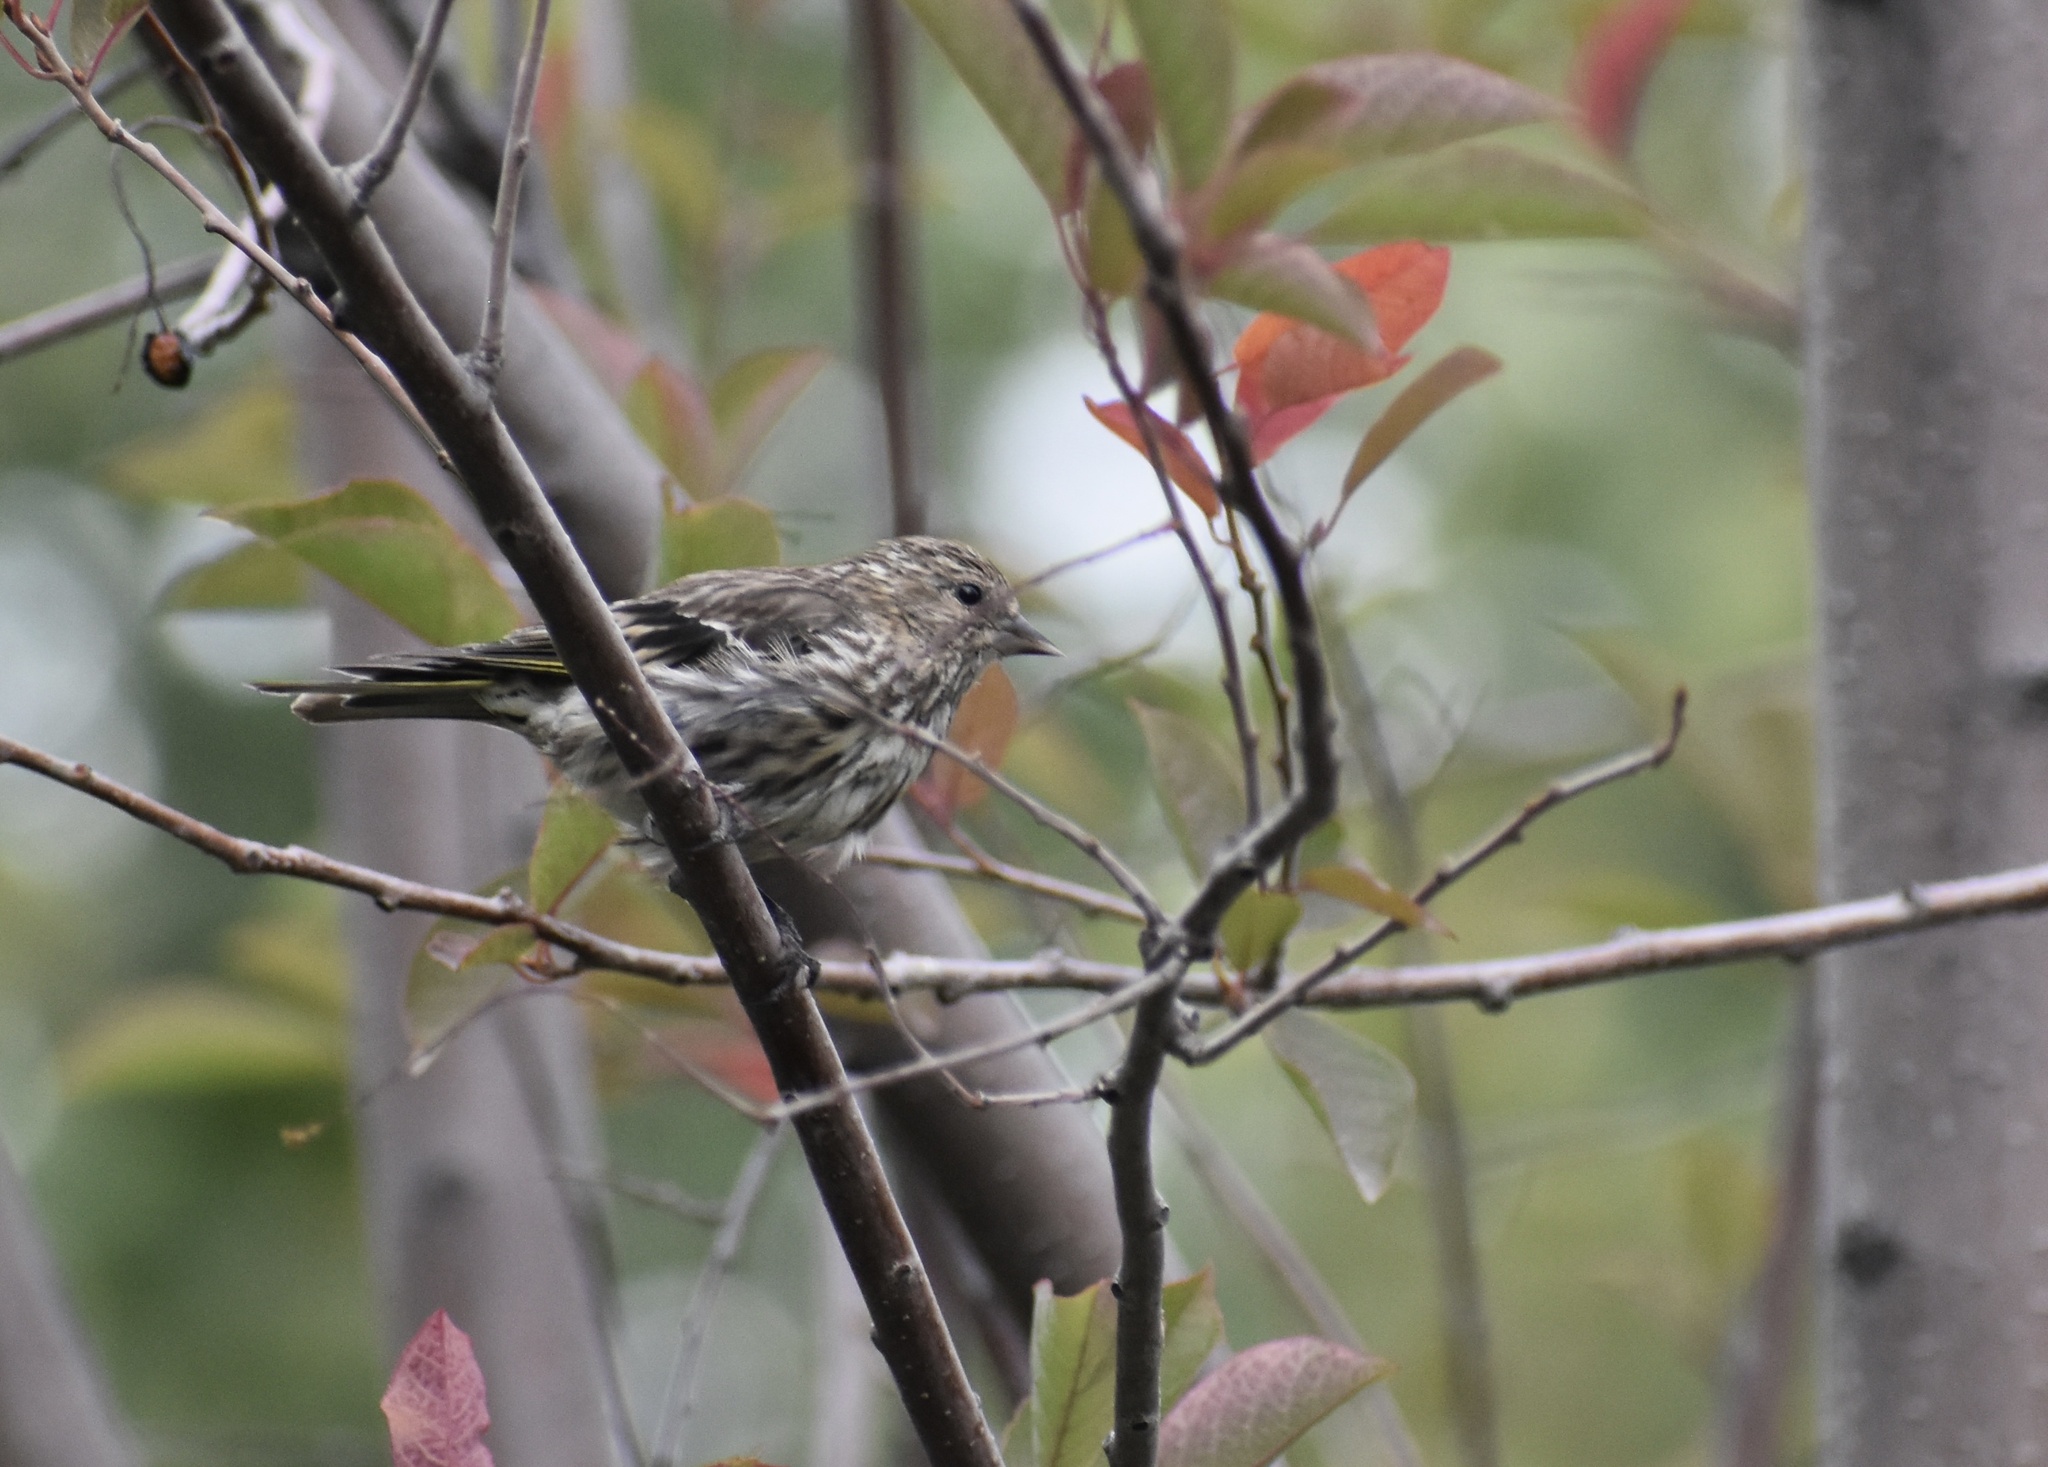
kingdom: Animalia
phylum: Chordata
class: Aves
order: Passeriformes
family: Fringillidae
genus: Spinus
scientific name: Spinus pinus
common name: Pine siskin
